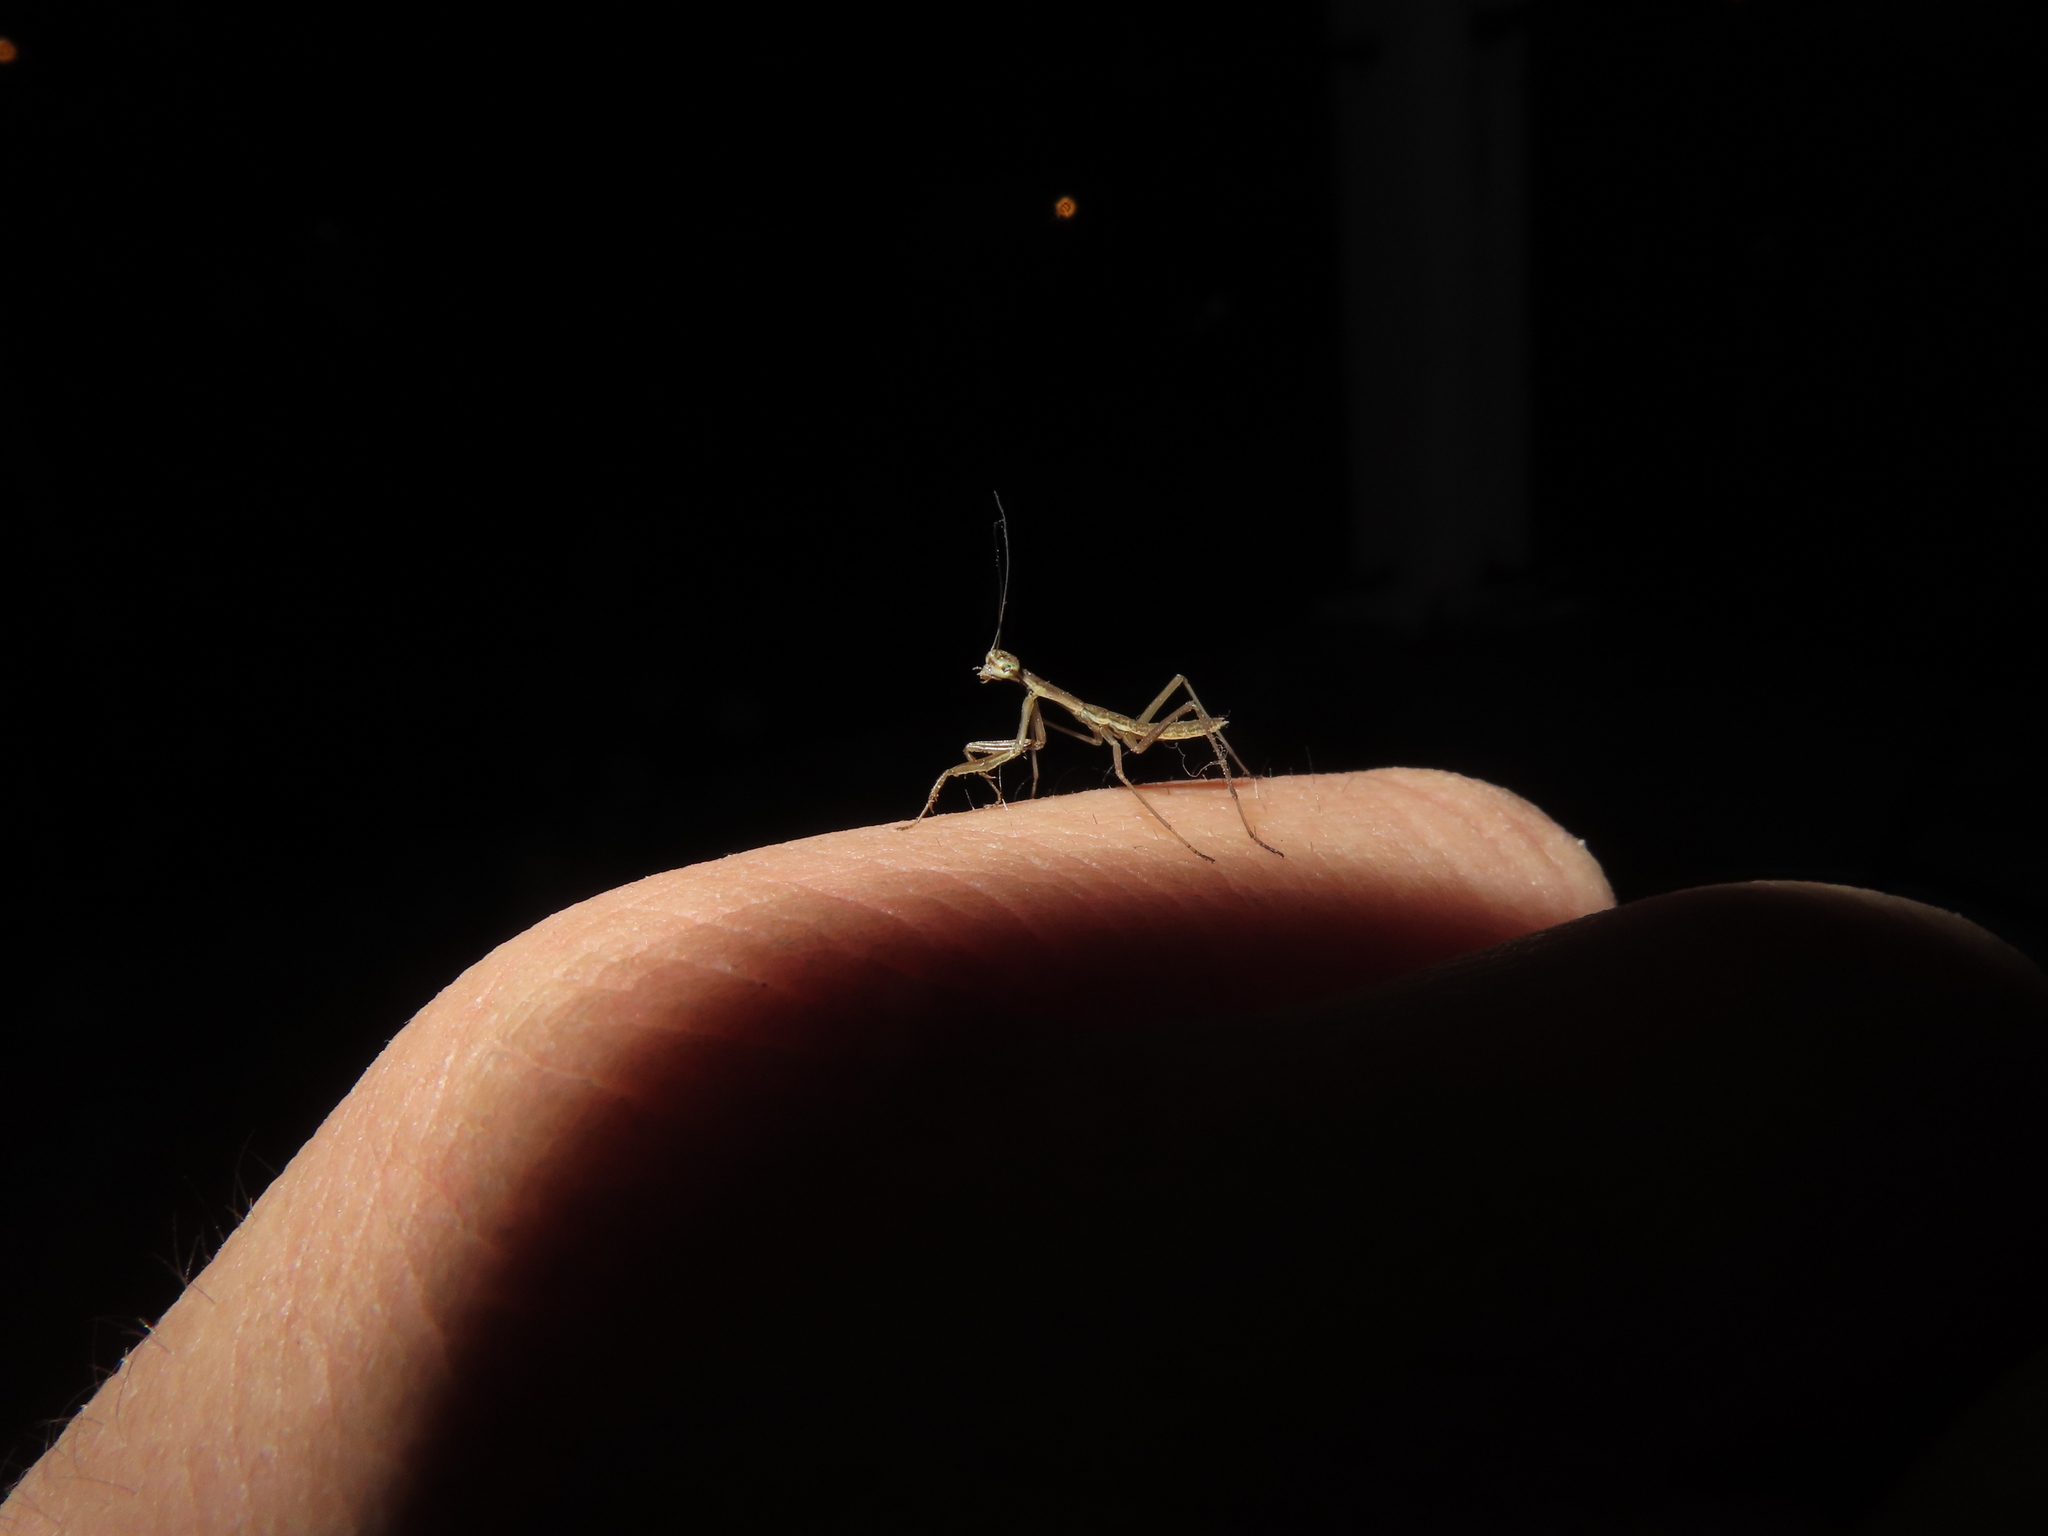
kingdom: Animalia
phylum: Arthropoda
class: Insecta
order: Mantodea
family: Mantidae
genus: Tenodera
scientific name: Tenodera sinensis
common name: Chinese mantis
